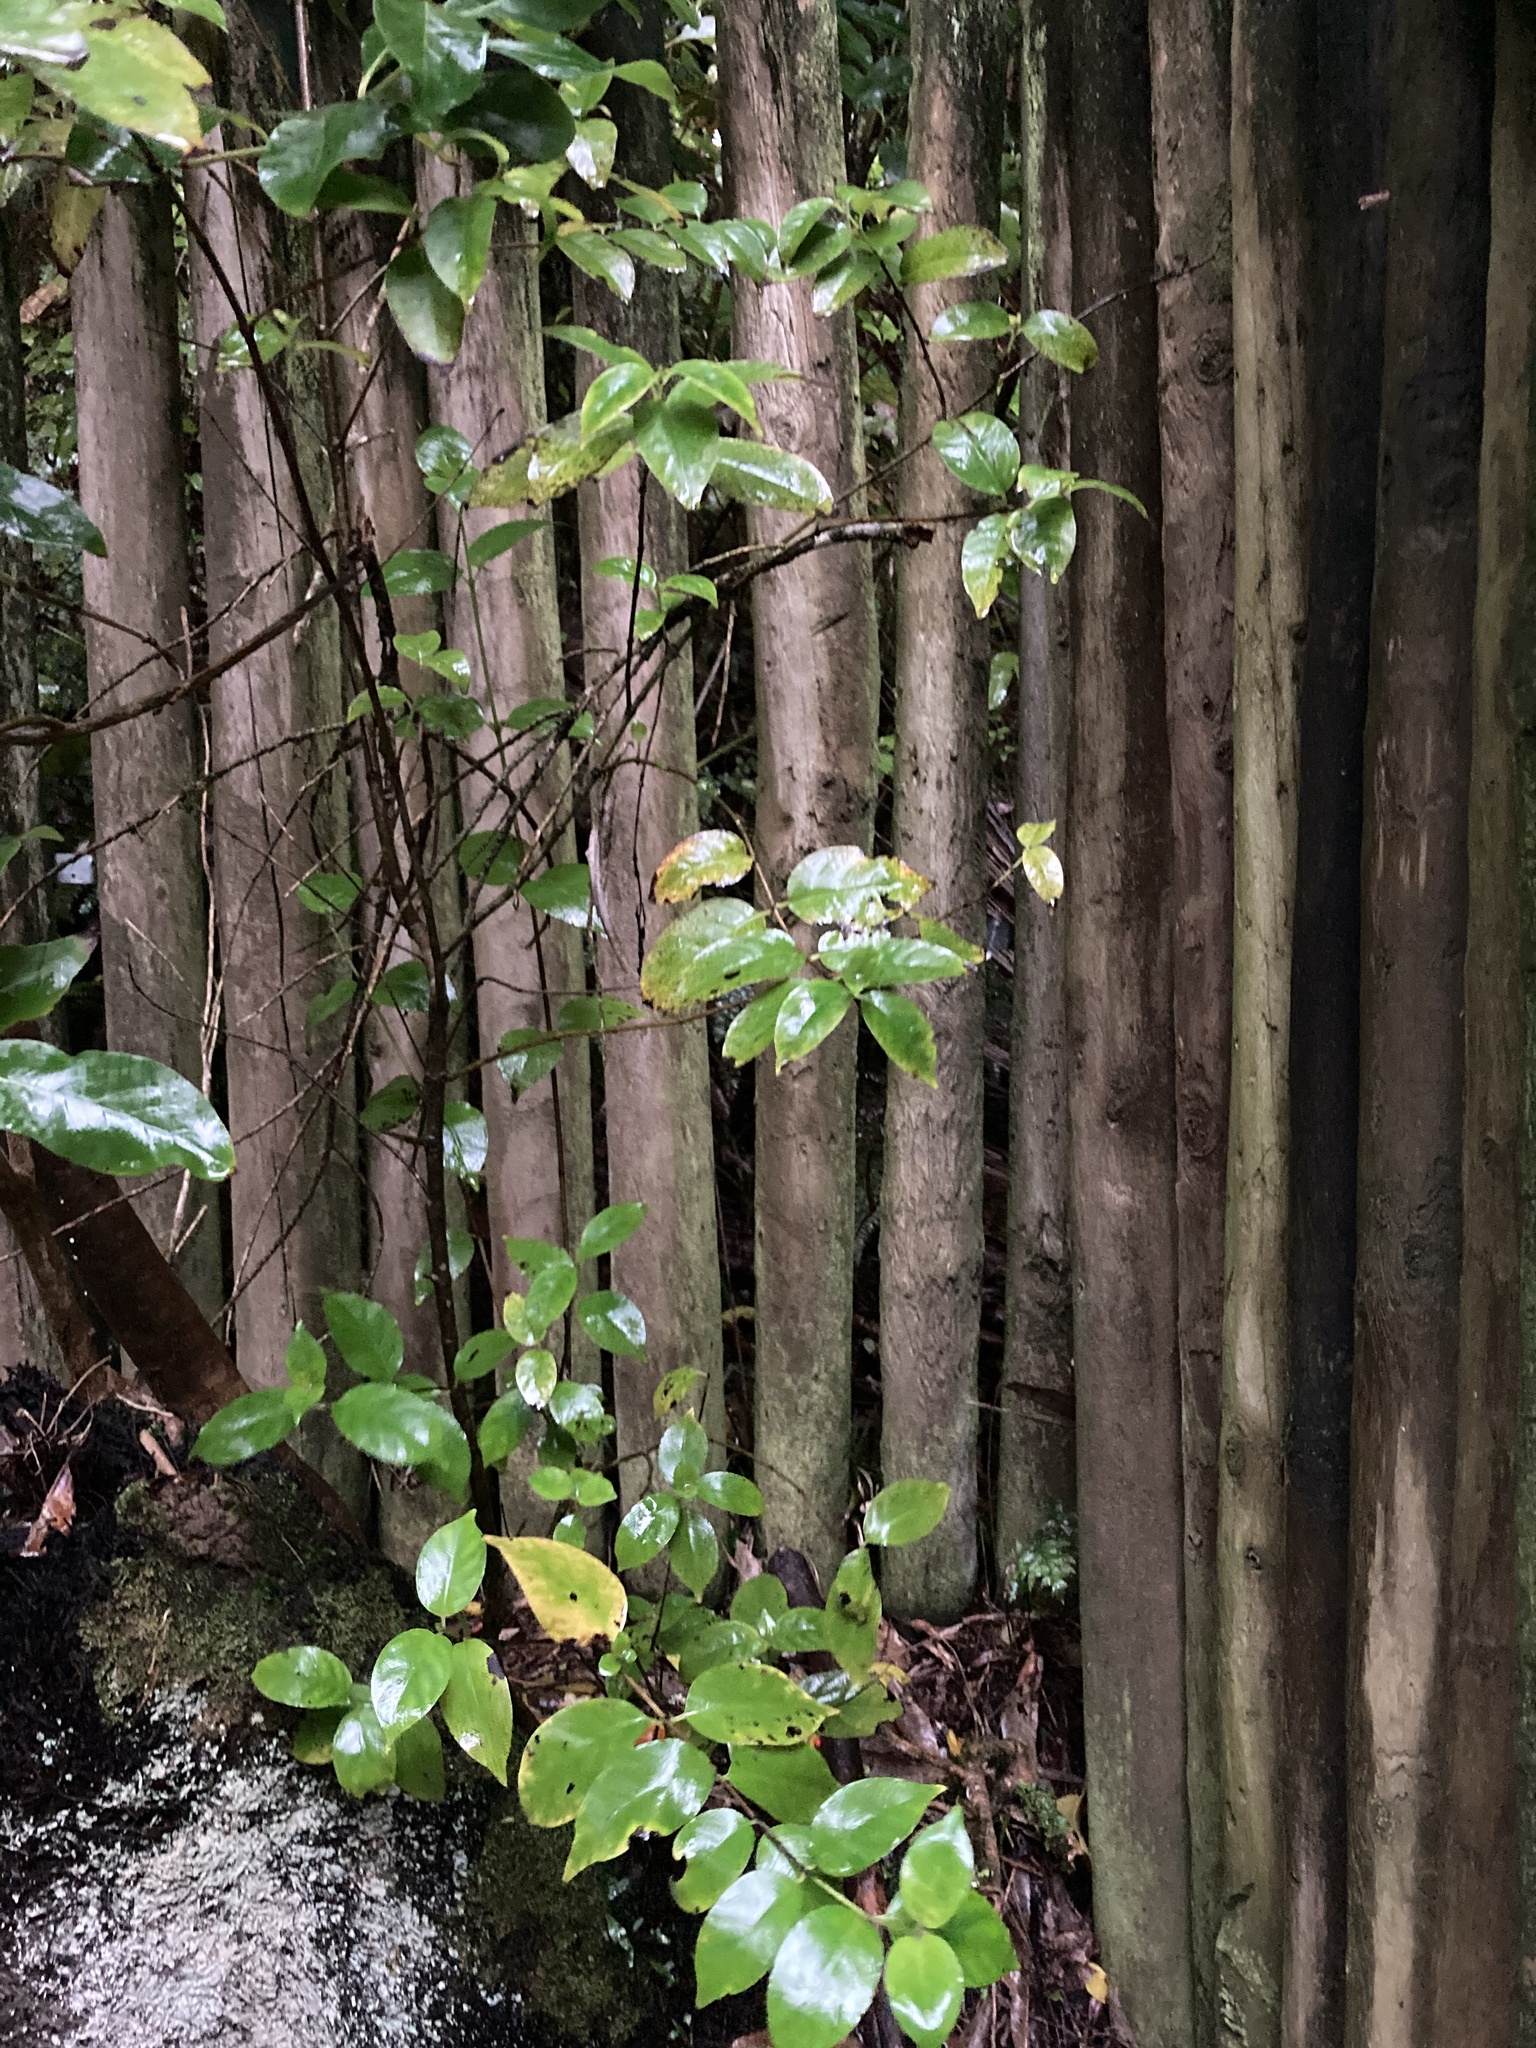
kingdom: Plantae
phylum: Tracheophyta
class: Magnoliopsida
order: Gentianales
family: Loganiaceae
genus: Geniostoma
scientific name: Geniostoma ligustrifolium
